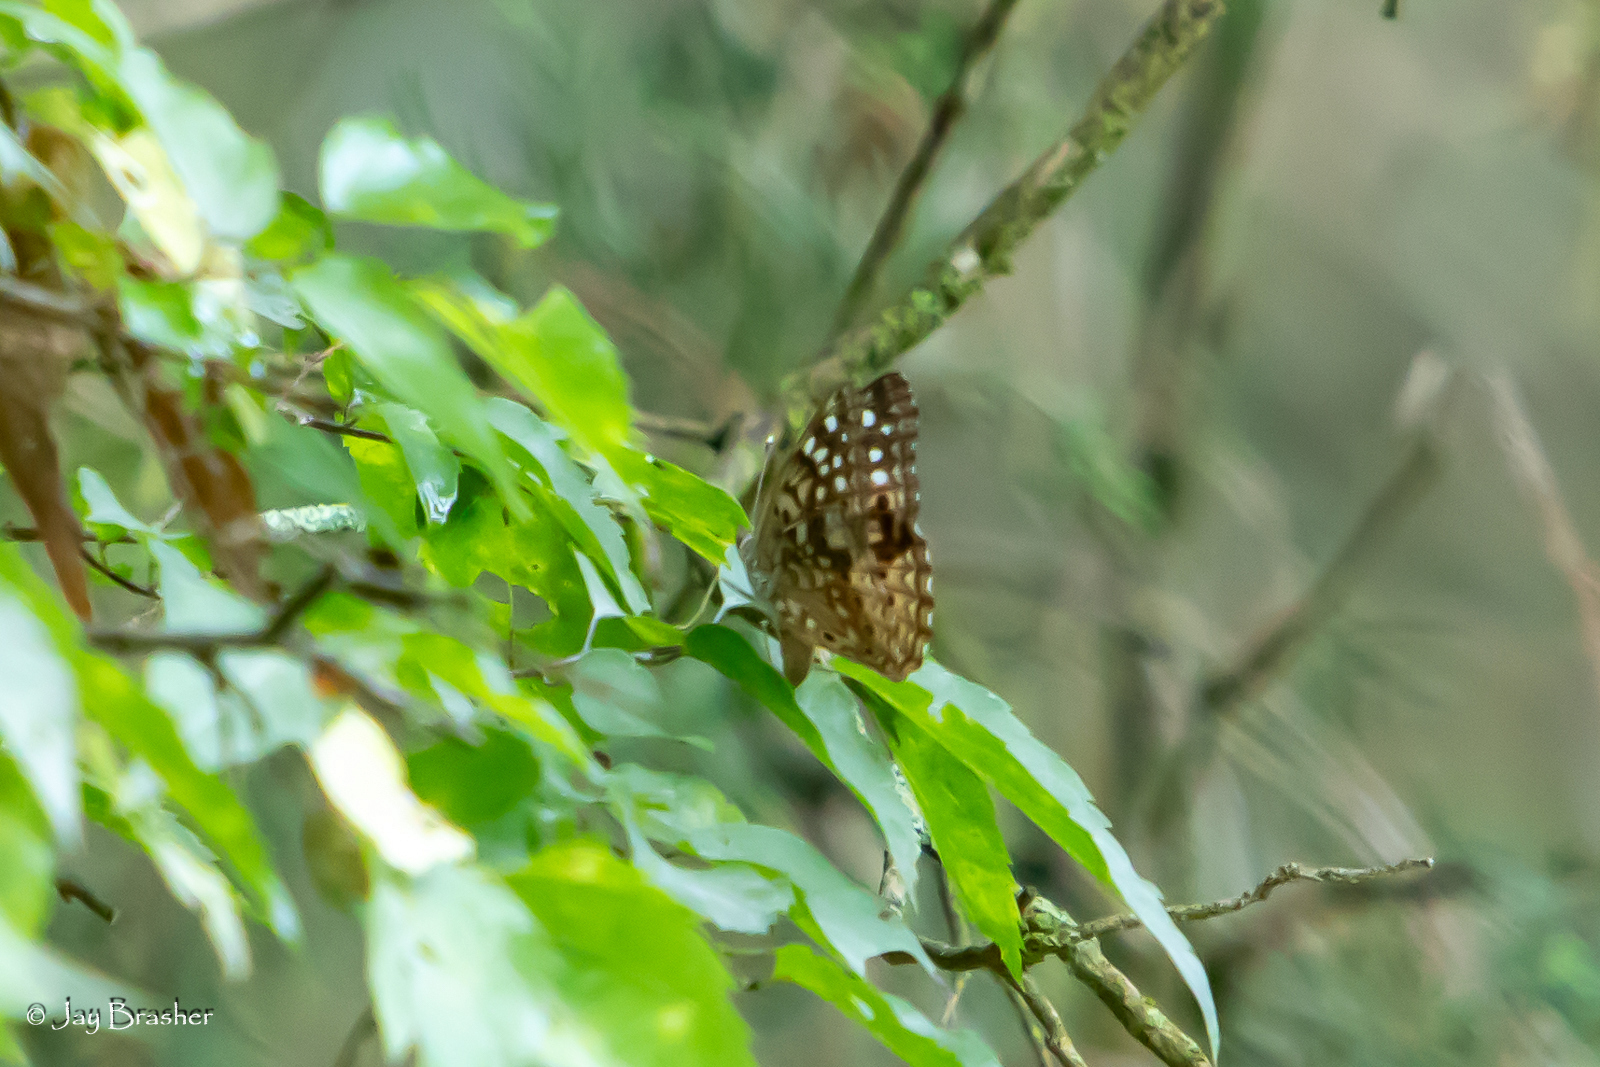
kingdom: Animalia
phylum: Arthropoda
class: Insecta
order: Lepidoptera
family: Nymphalidae
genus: Asterocampa
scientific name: Asterocampa celtis
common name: Hackberry emperor
